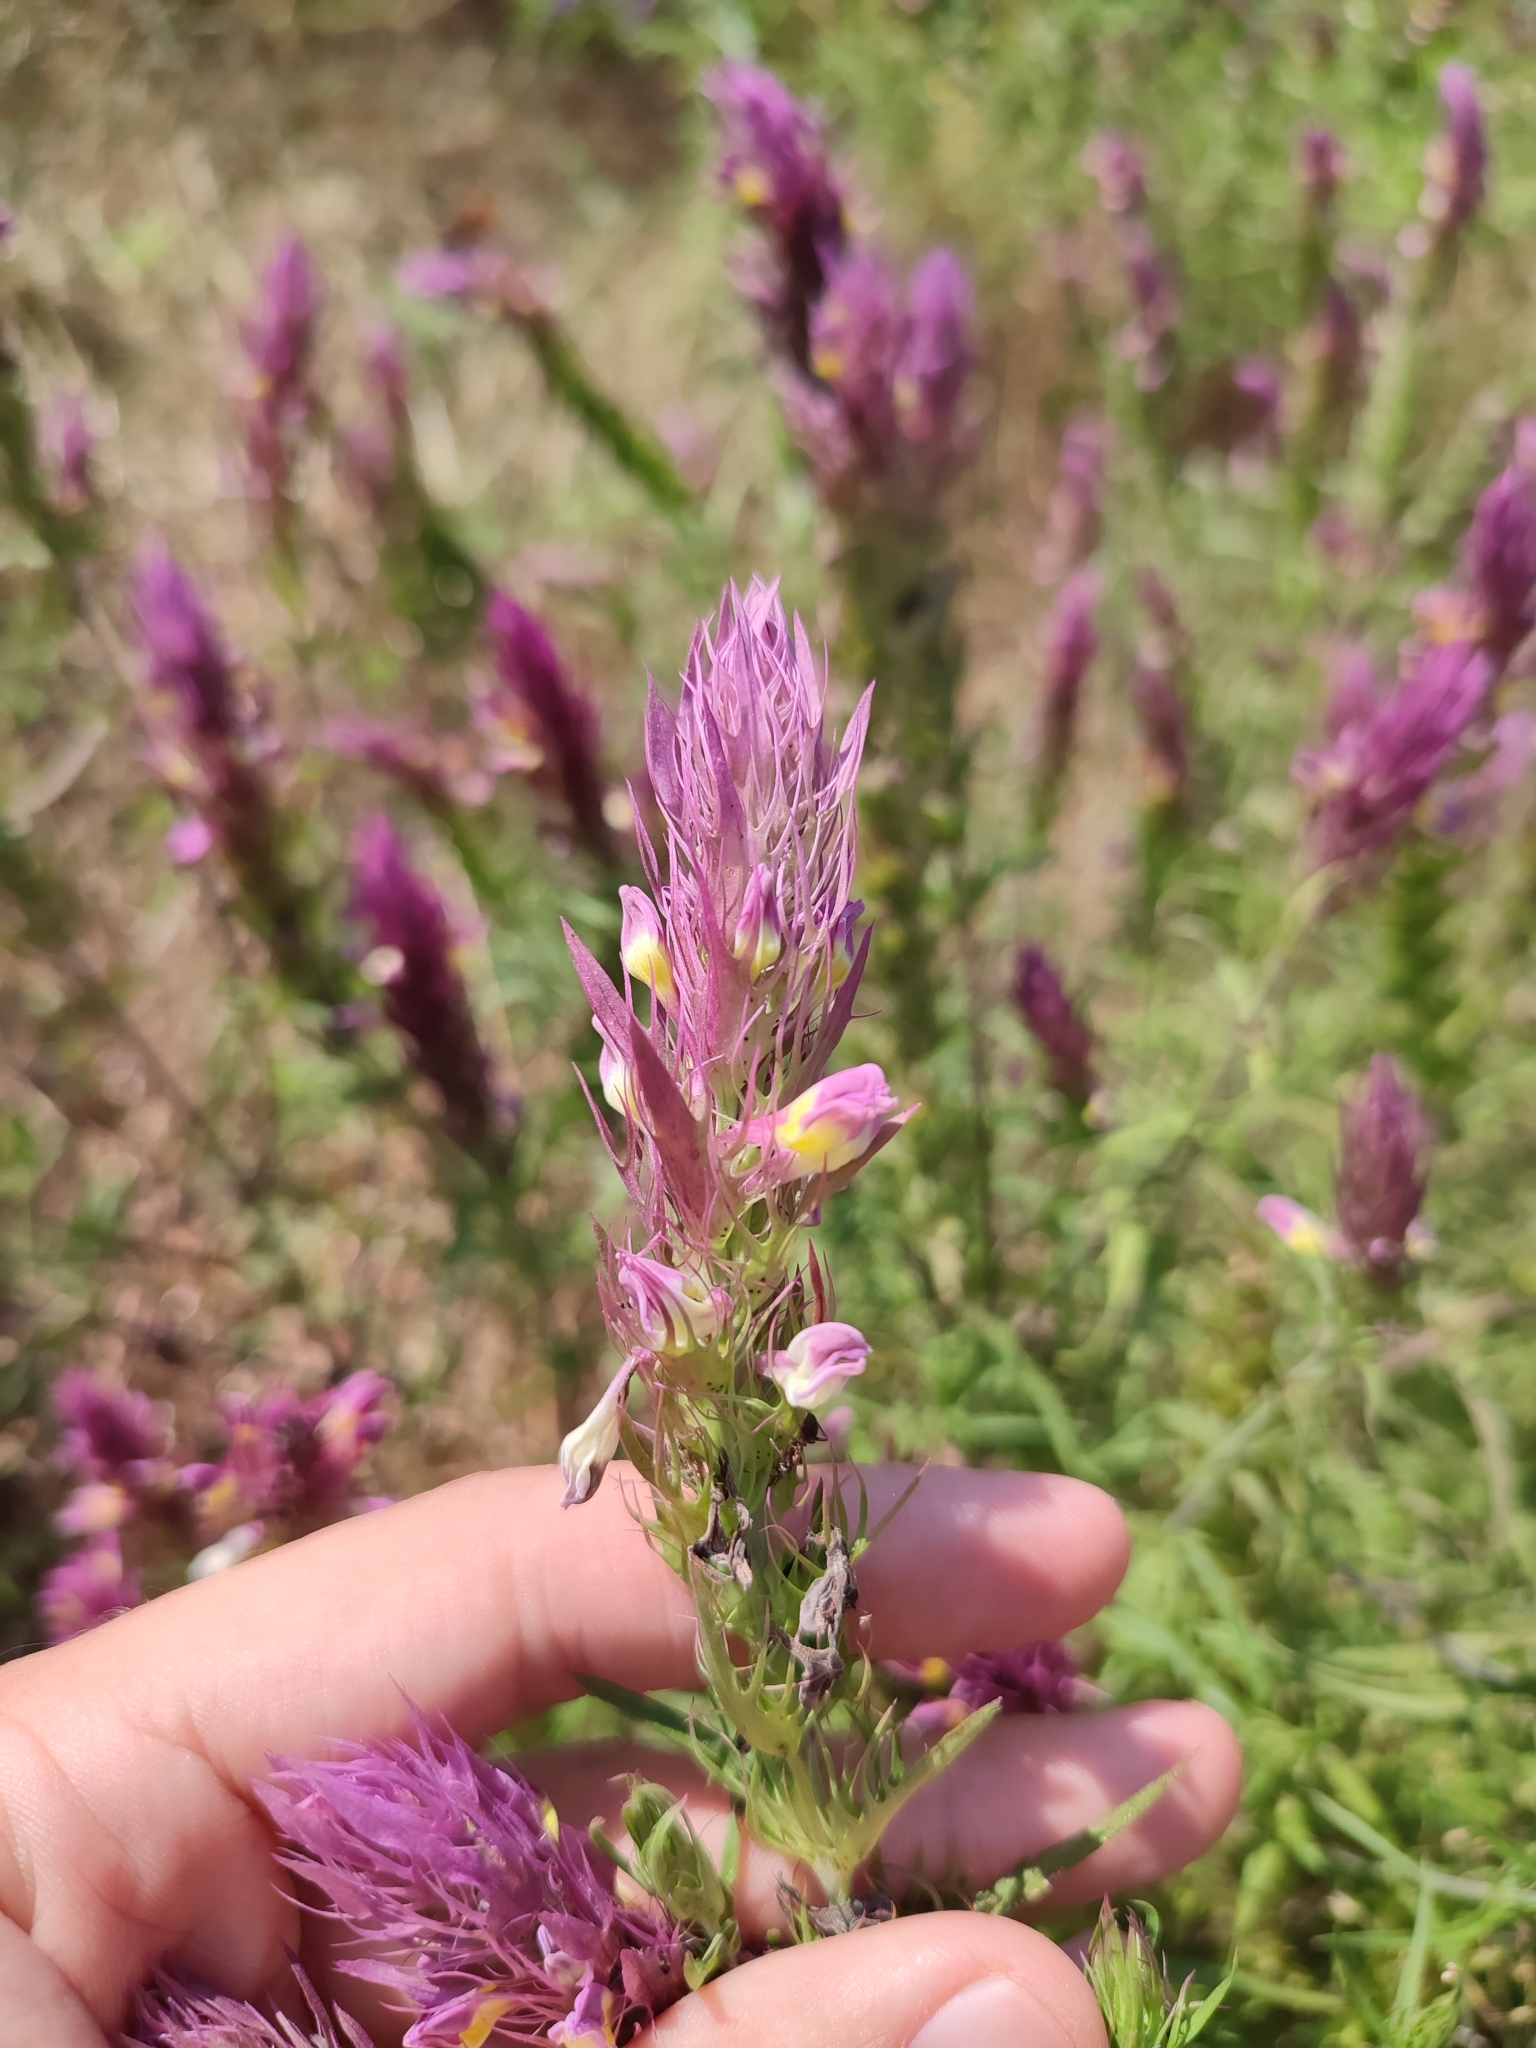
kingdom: Plantae
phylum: Tracheophyta
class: Magnoliopsida
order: Lamiales
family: Orobanchaceae
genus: Melampyrum
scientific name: Melampyrum arvense
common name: Field cow-wheat
